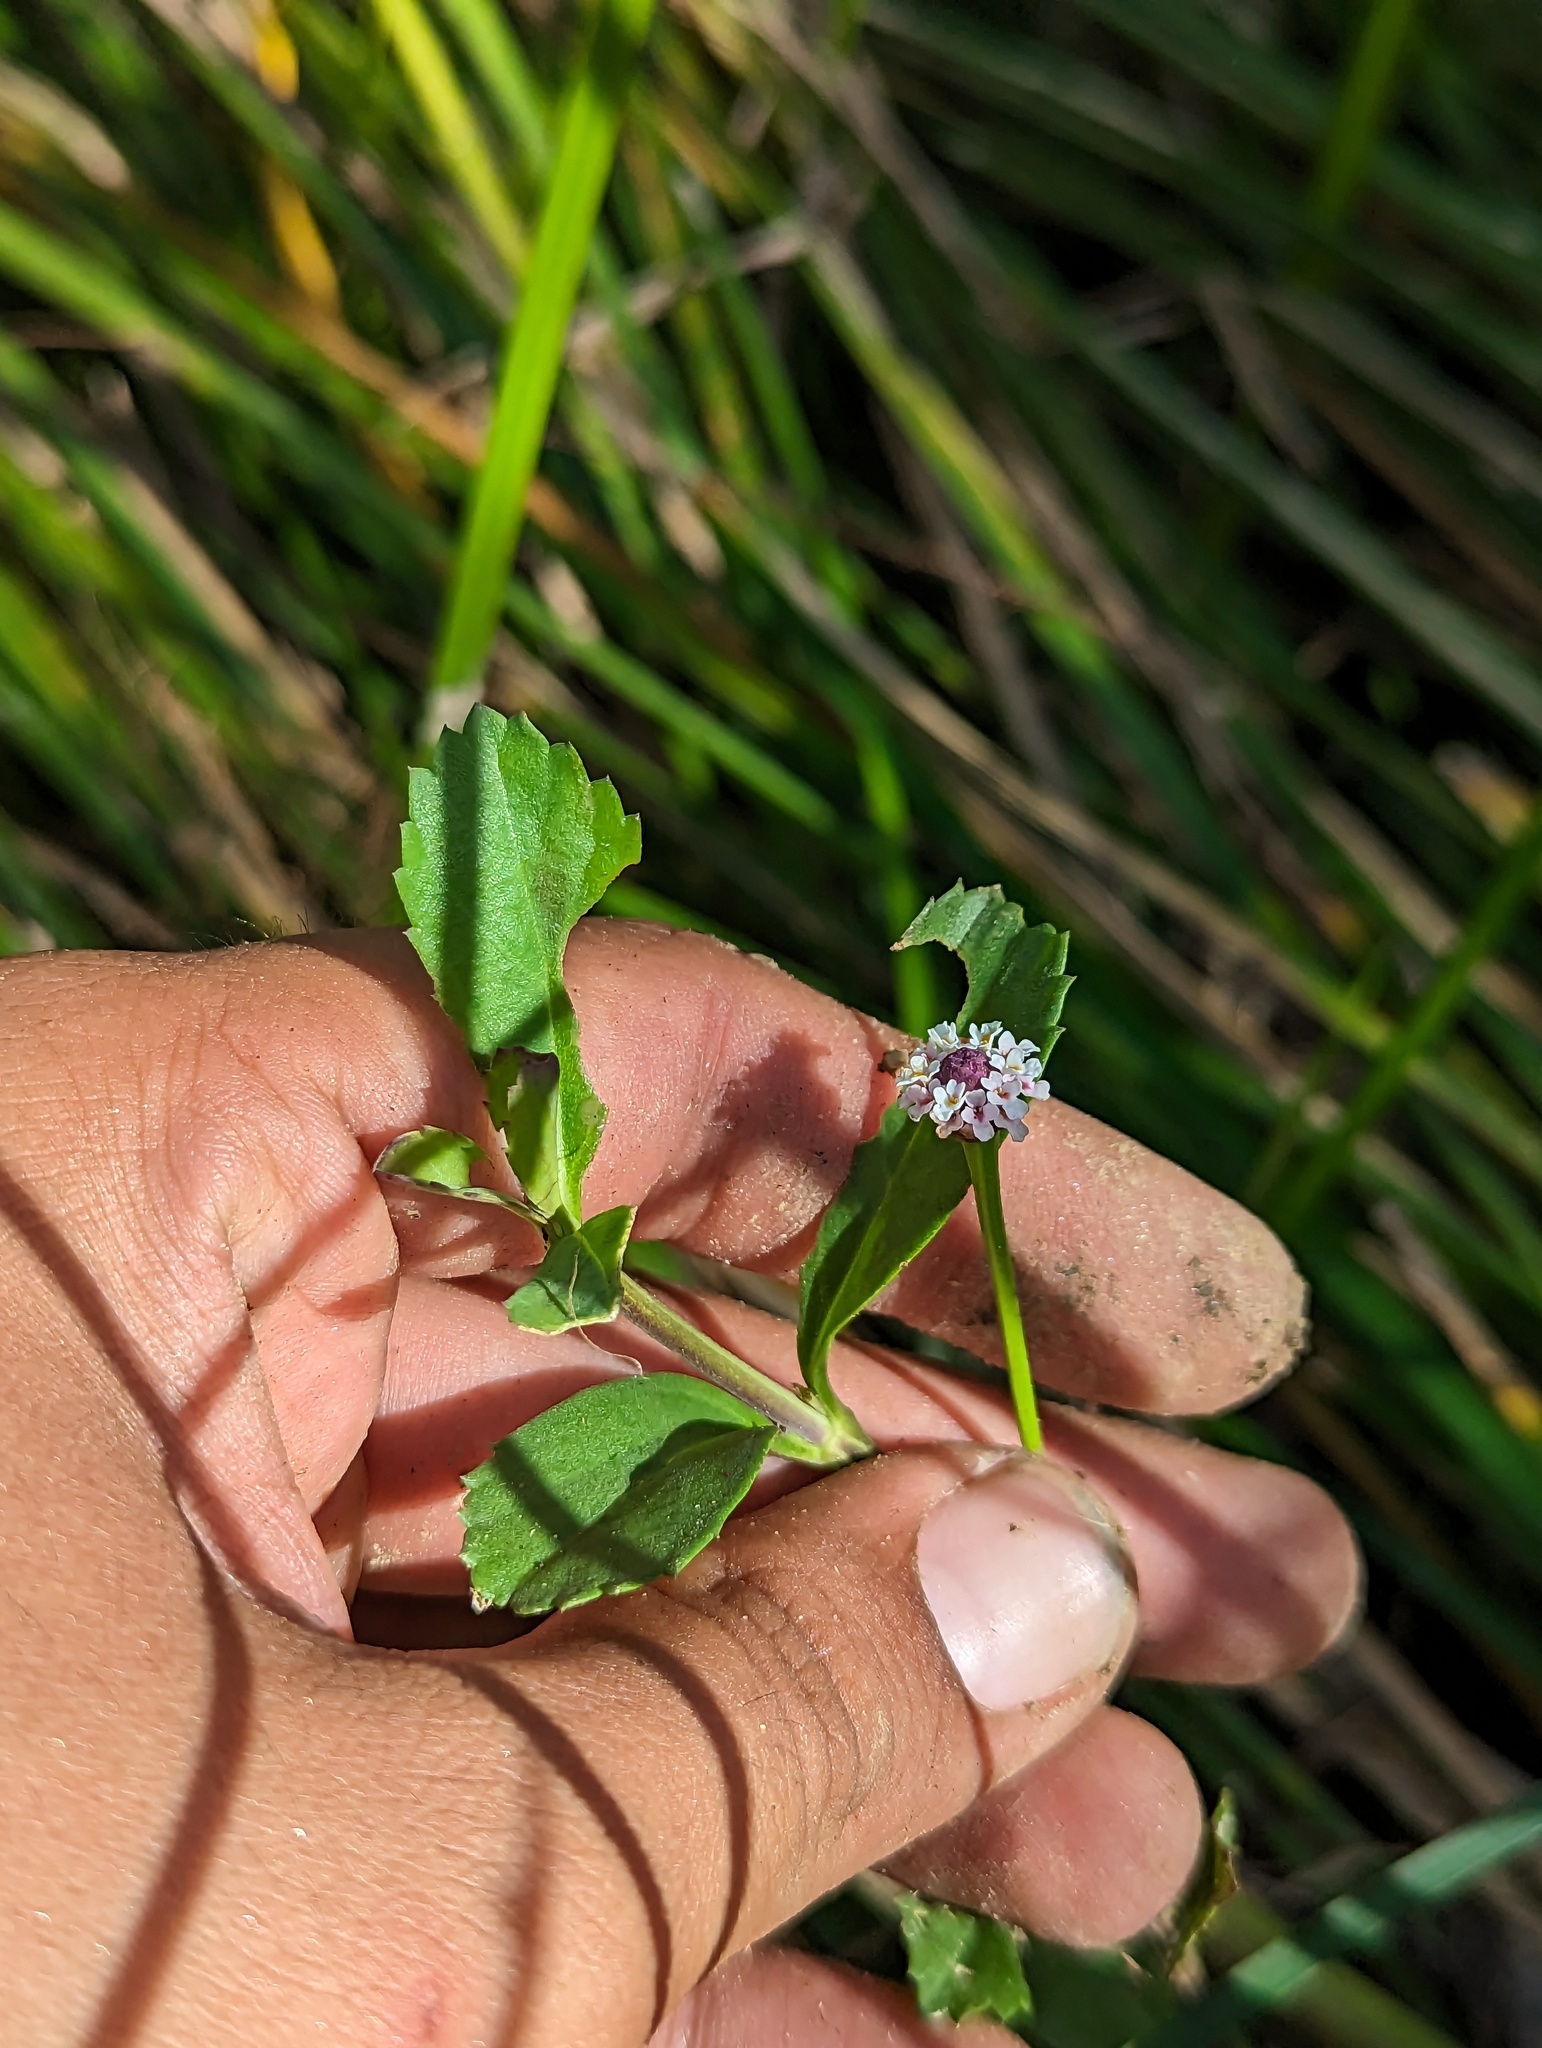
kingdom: Plantae
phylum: Tracheophyta
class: Magnoliopsida
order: Lamiales
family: Verbenaceae
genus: Phyla
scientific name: Phyla nodiflora
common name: Frogfruit
